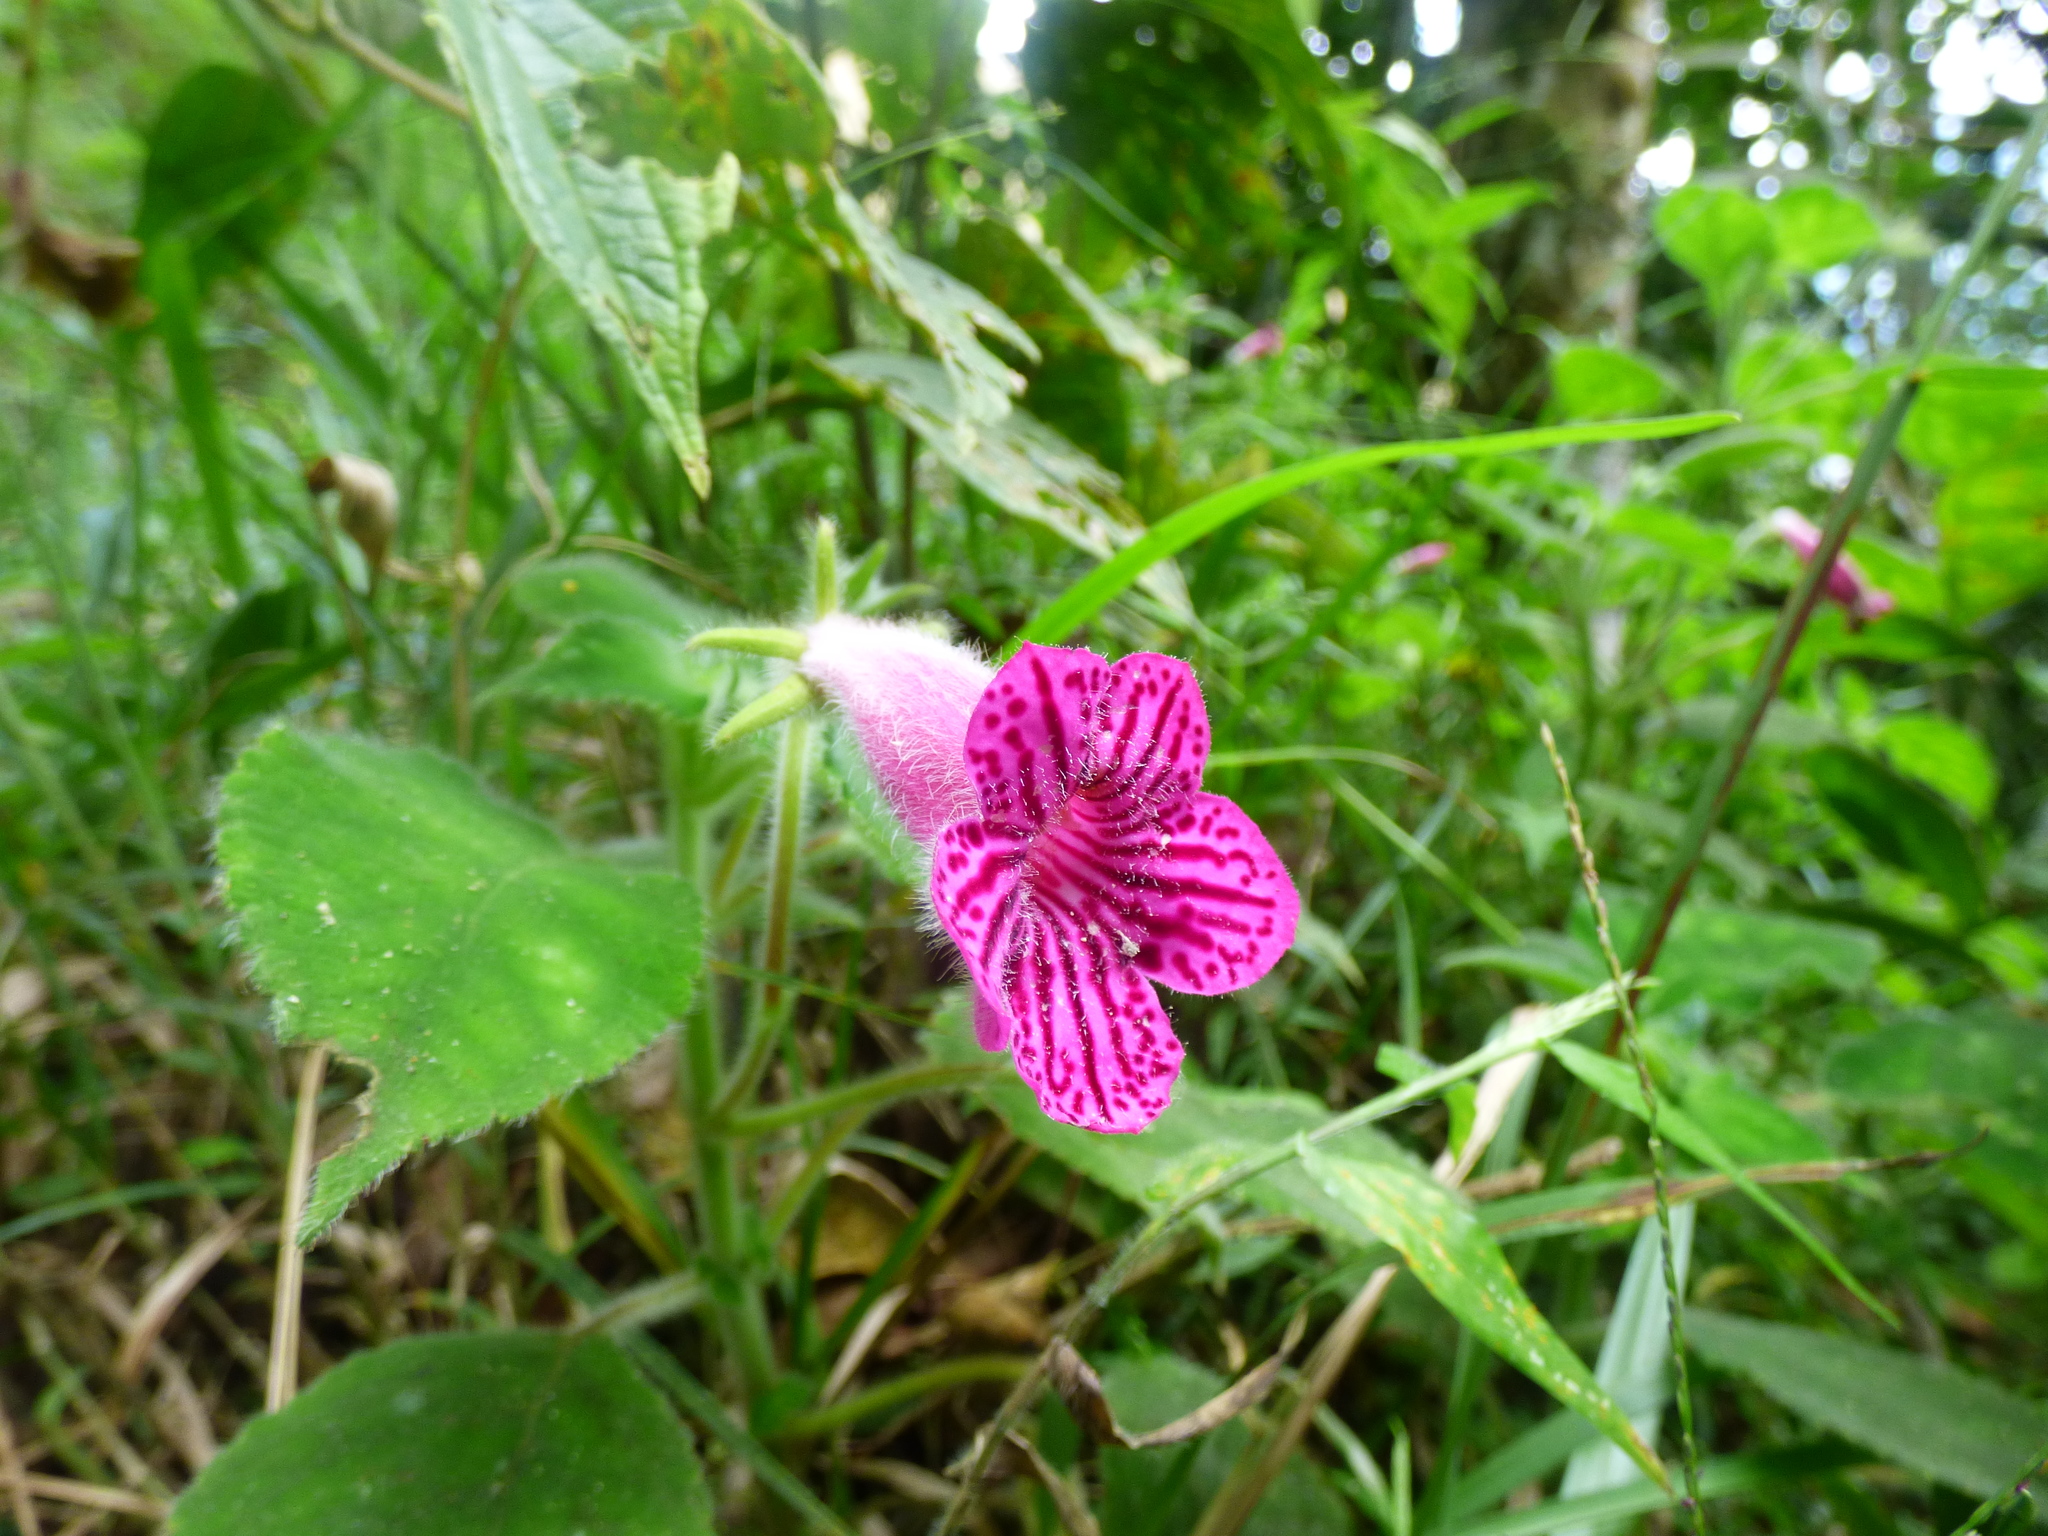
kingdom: Plantae
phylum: Tracheophyta
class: Magnoliopsida
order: Lamiales
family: Gesneriaceae
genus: Kohleria
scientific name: Kohleria amabilis
